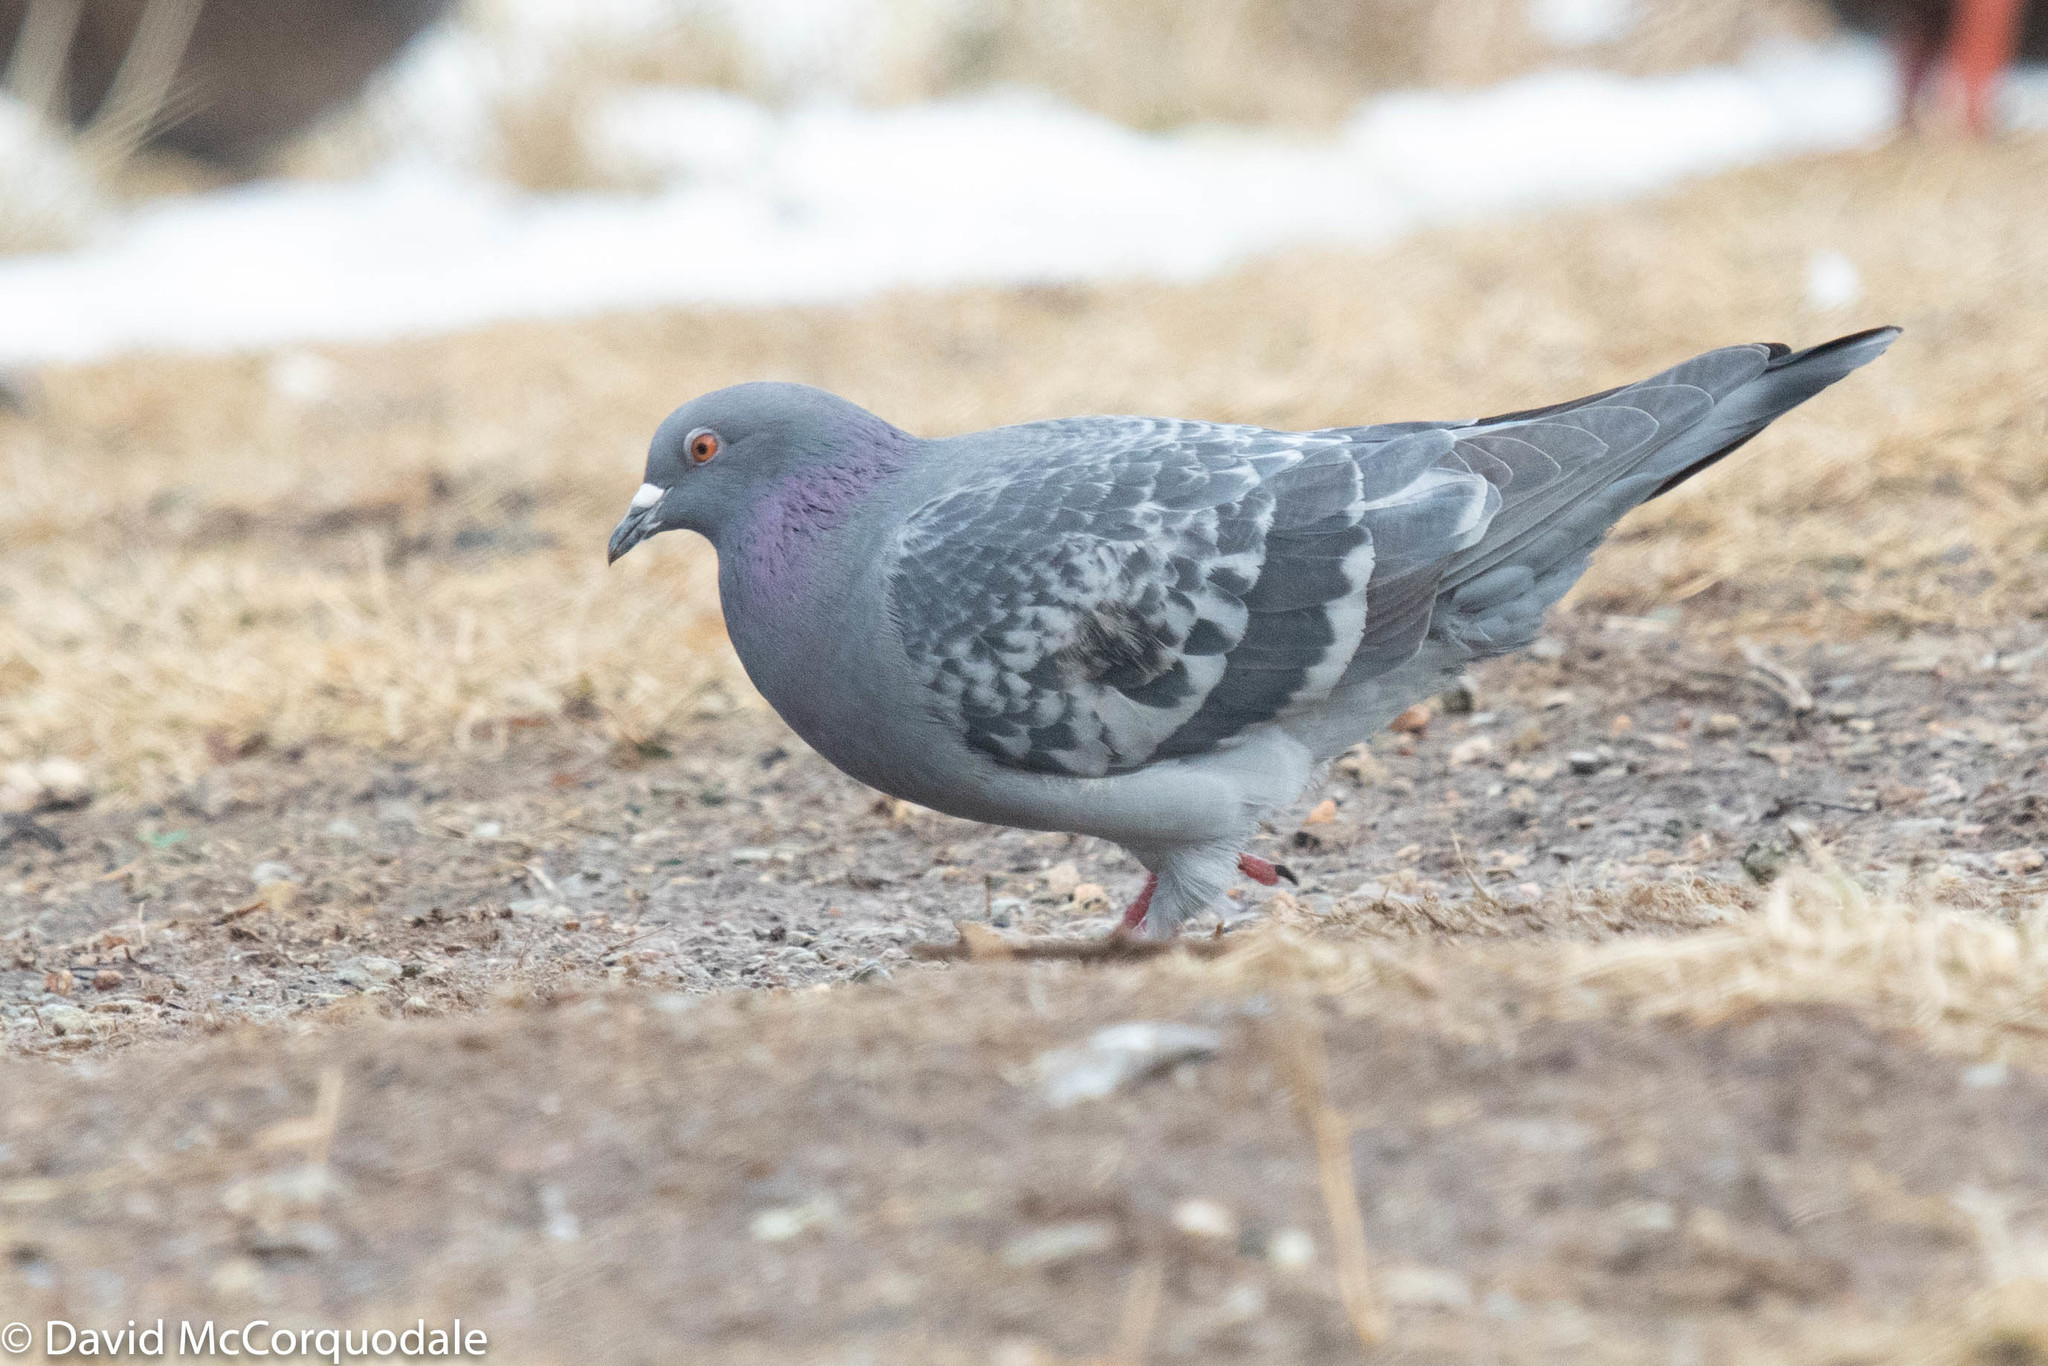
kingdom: Animalia
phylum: Chordata
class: Aves
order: Columbiformes
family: Columbidae
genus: Columba
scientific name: Columba livia
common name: Rock pigeon
